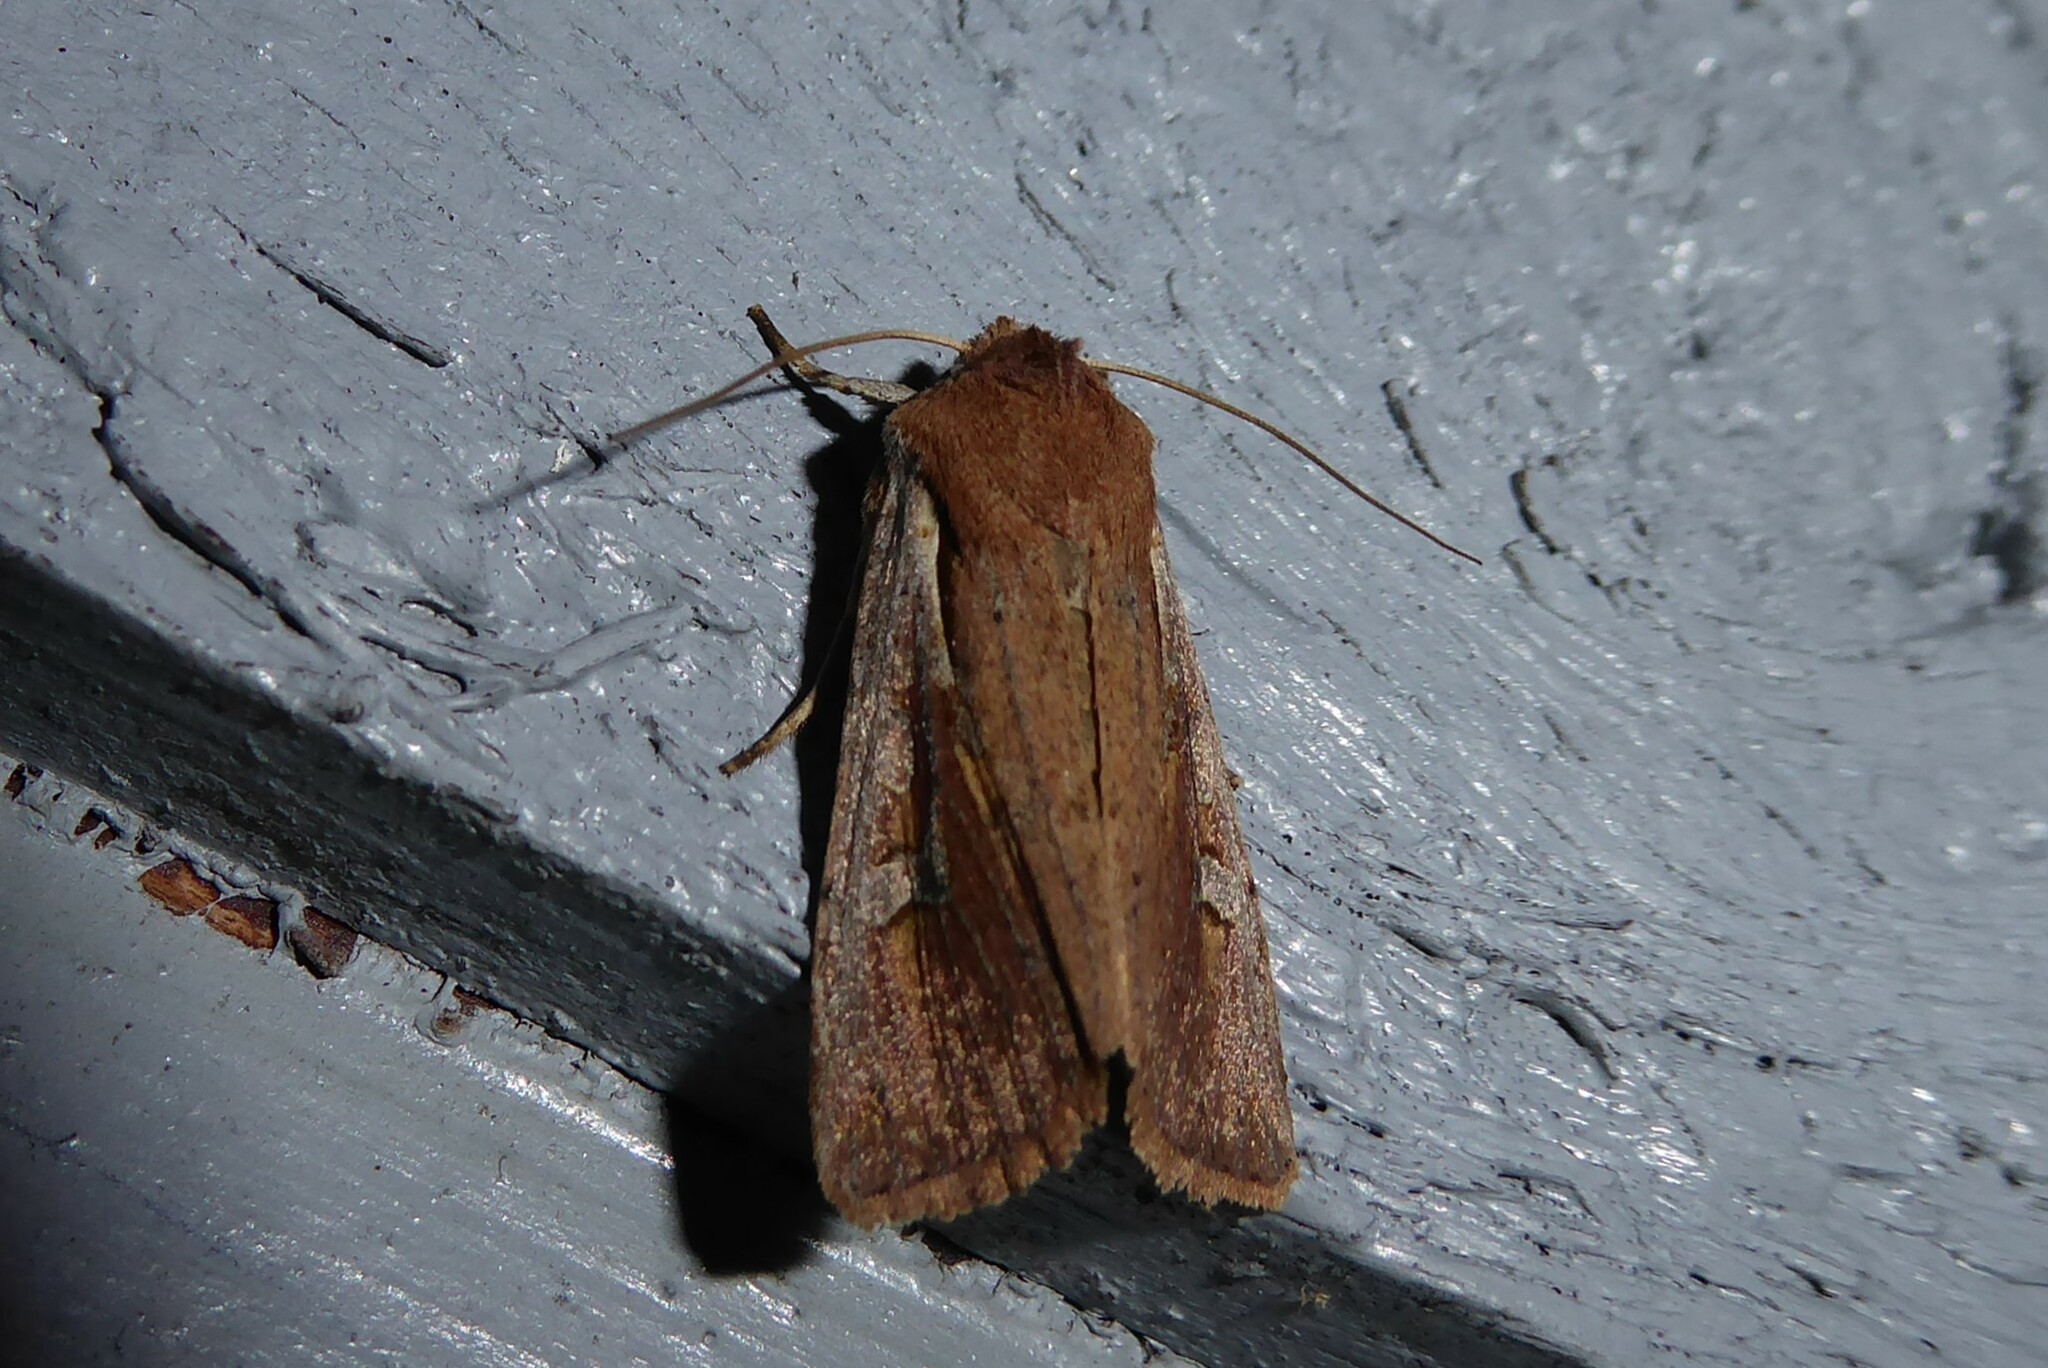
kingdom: Animalia
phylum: Arthropoda
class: Insecta
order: Lepidoptera
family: Noctuidae
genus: Ichneutica
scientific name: Ichneutica atristriga
